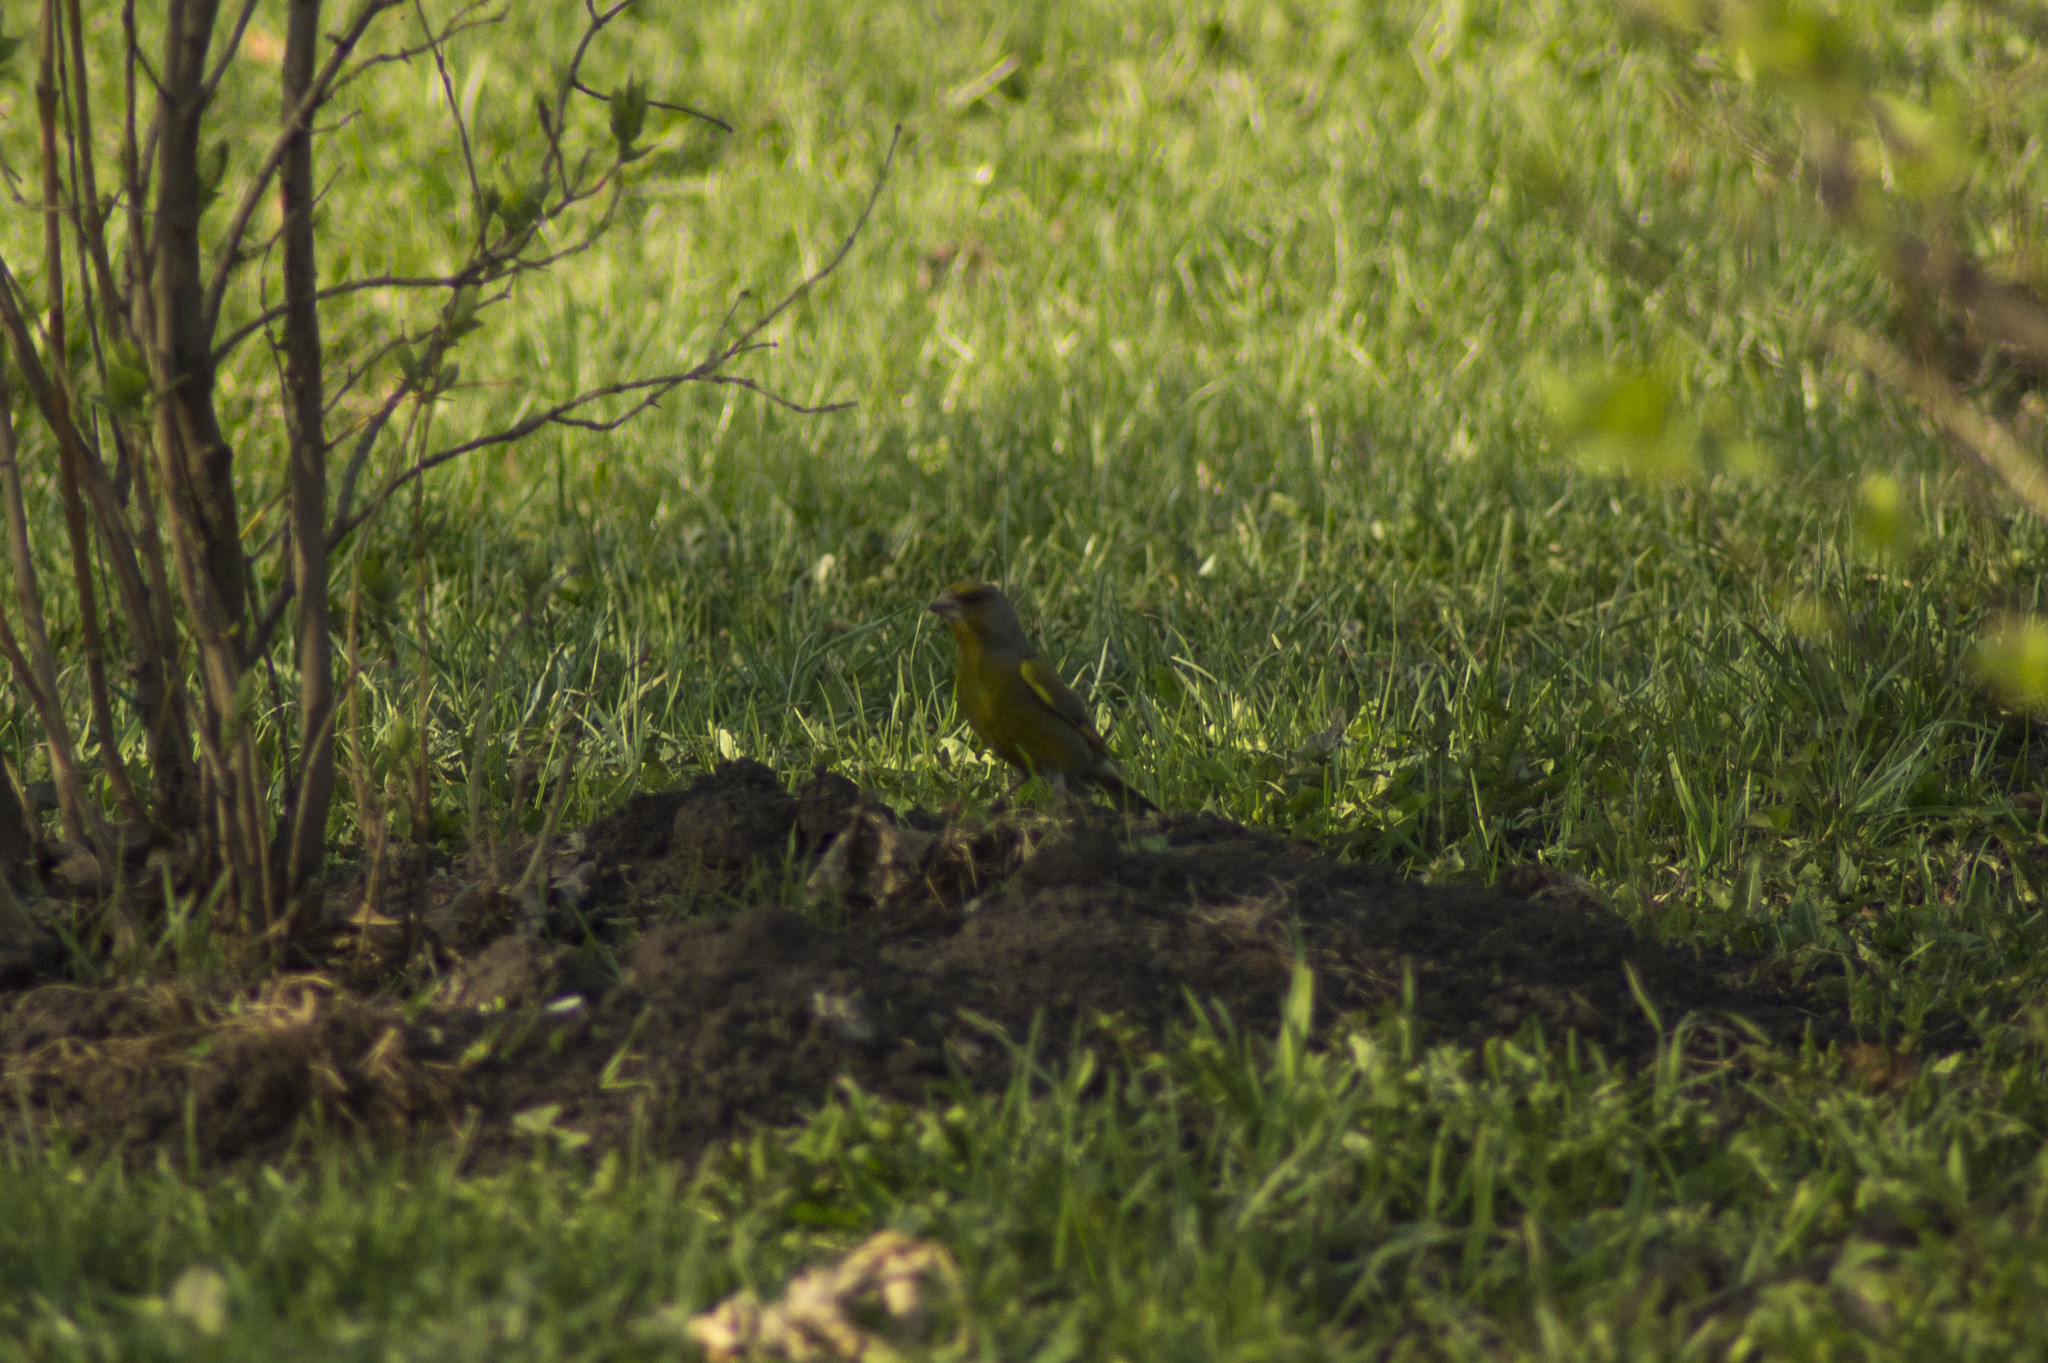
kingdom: Plantae
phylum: Tracheophyta
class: Liliopsida
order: Poales
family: Poaceae
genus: Chloris
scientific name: Chloris chloris
